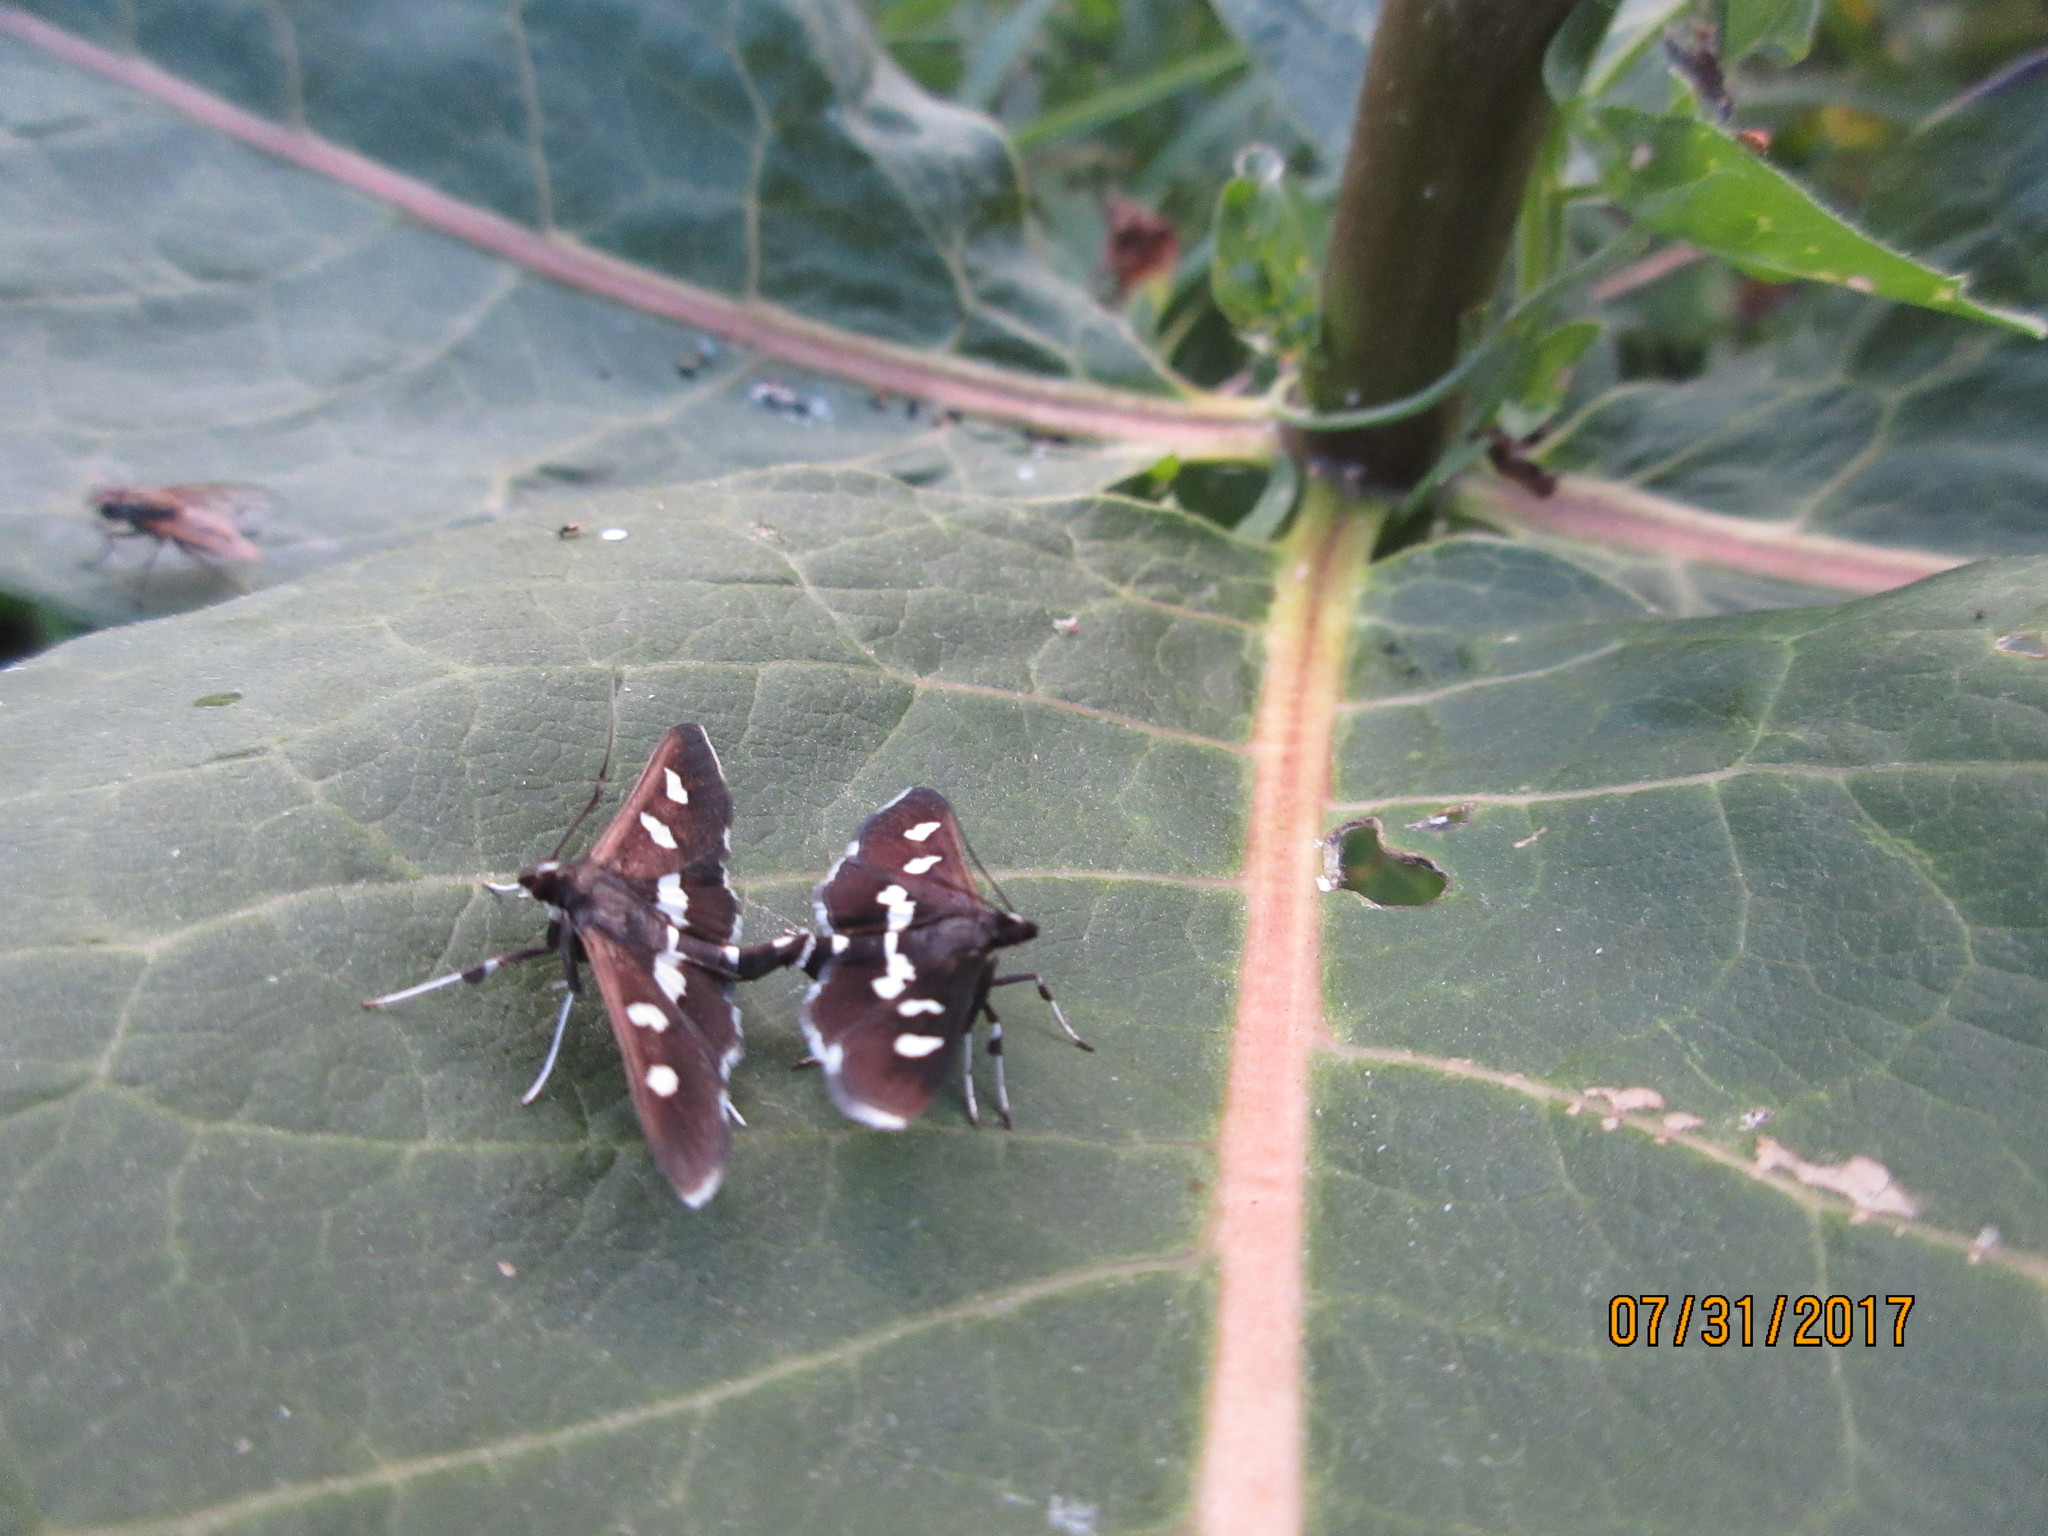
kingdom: Animalia
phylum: Arthropoda
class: Insecta
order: Lepidoptera
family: Crambidae
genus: Desmia
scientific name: Desmia
